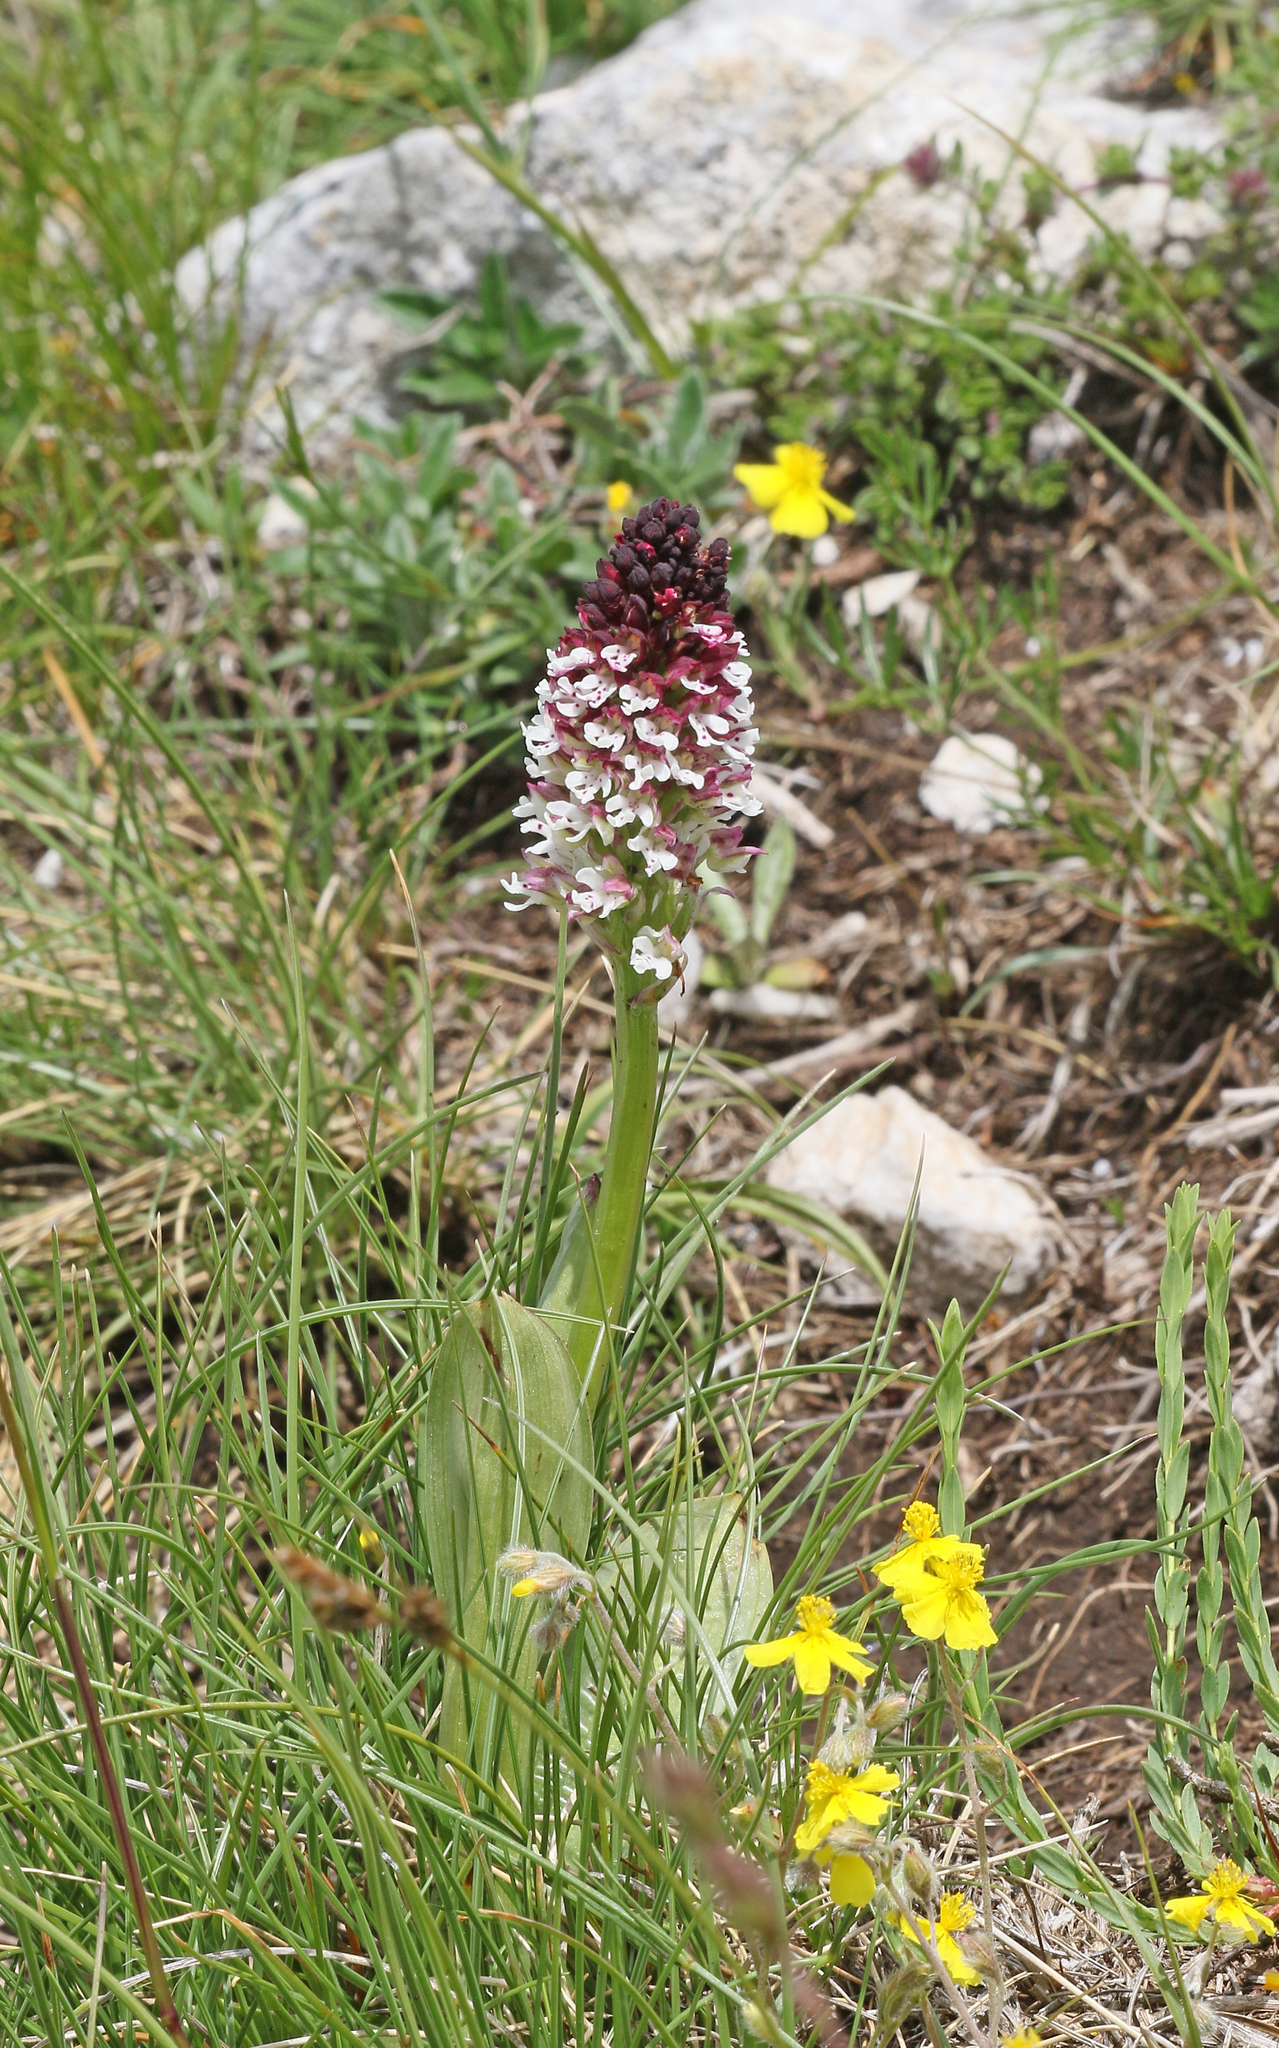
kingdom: Plantae
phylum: Tracheophyta
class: Liliopsida
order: Asparagales
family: Orchidaceae
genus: Neotinea
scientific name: Neotinea ustulata
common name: Burnt orchid
